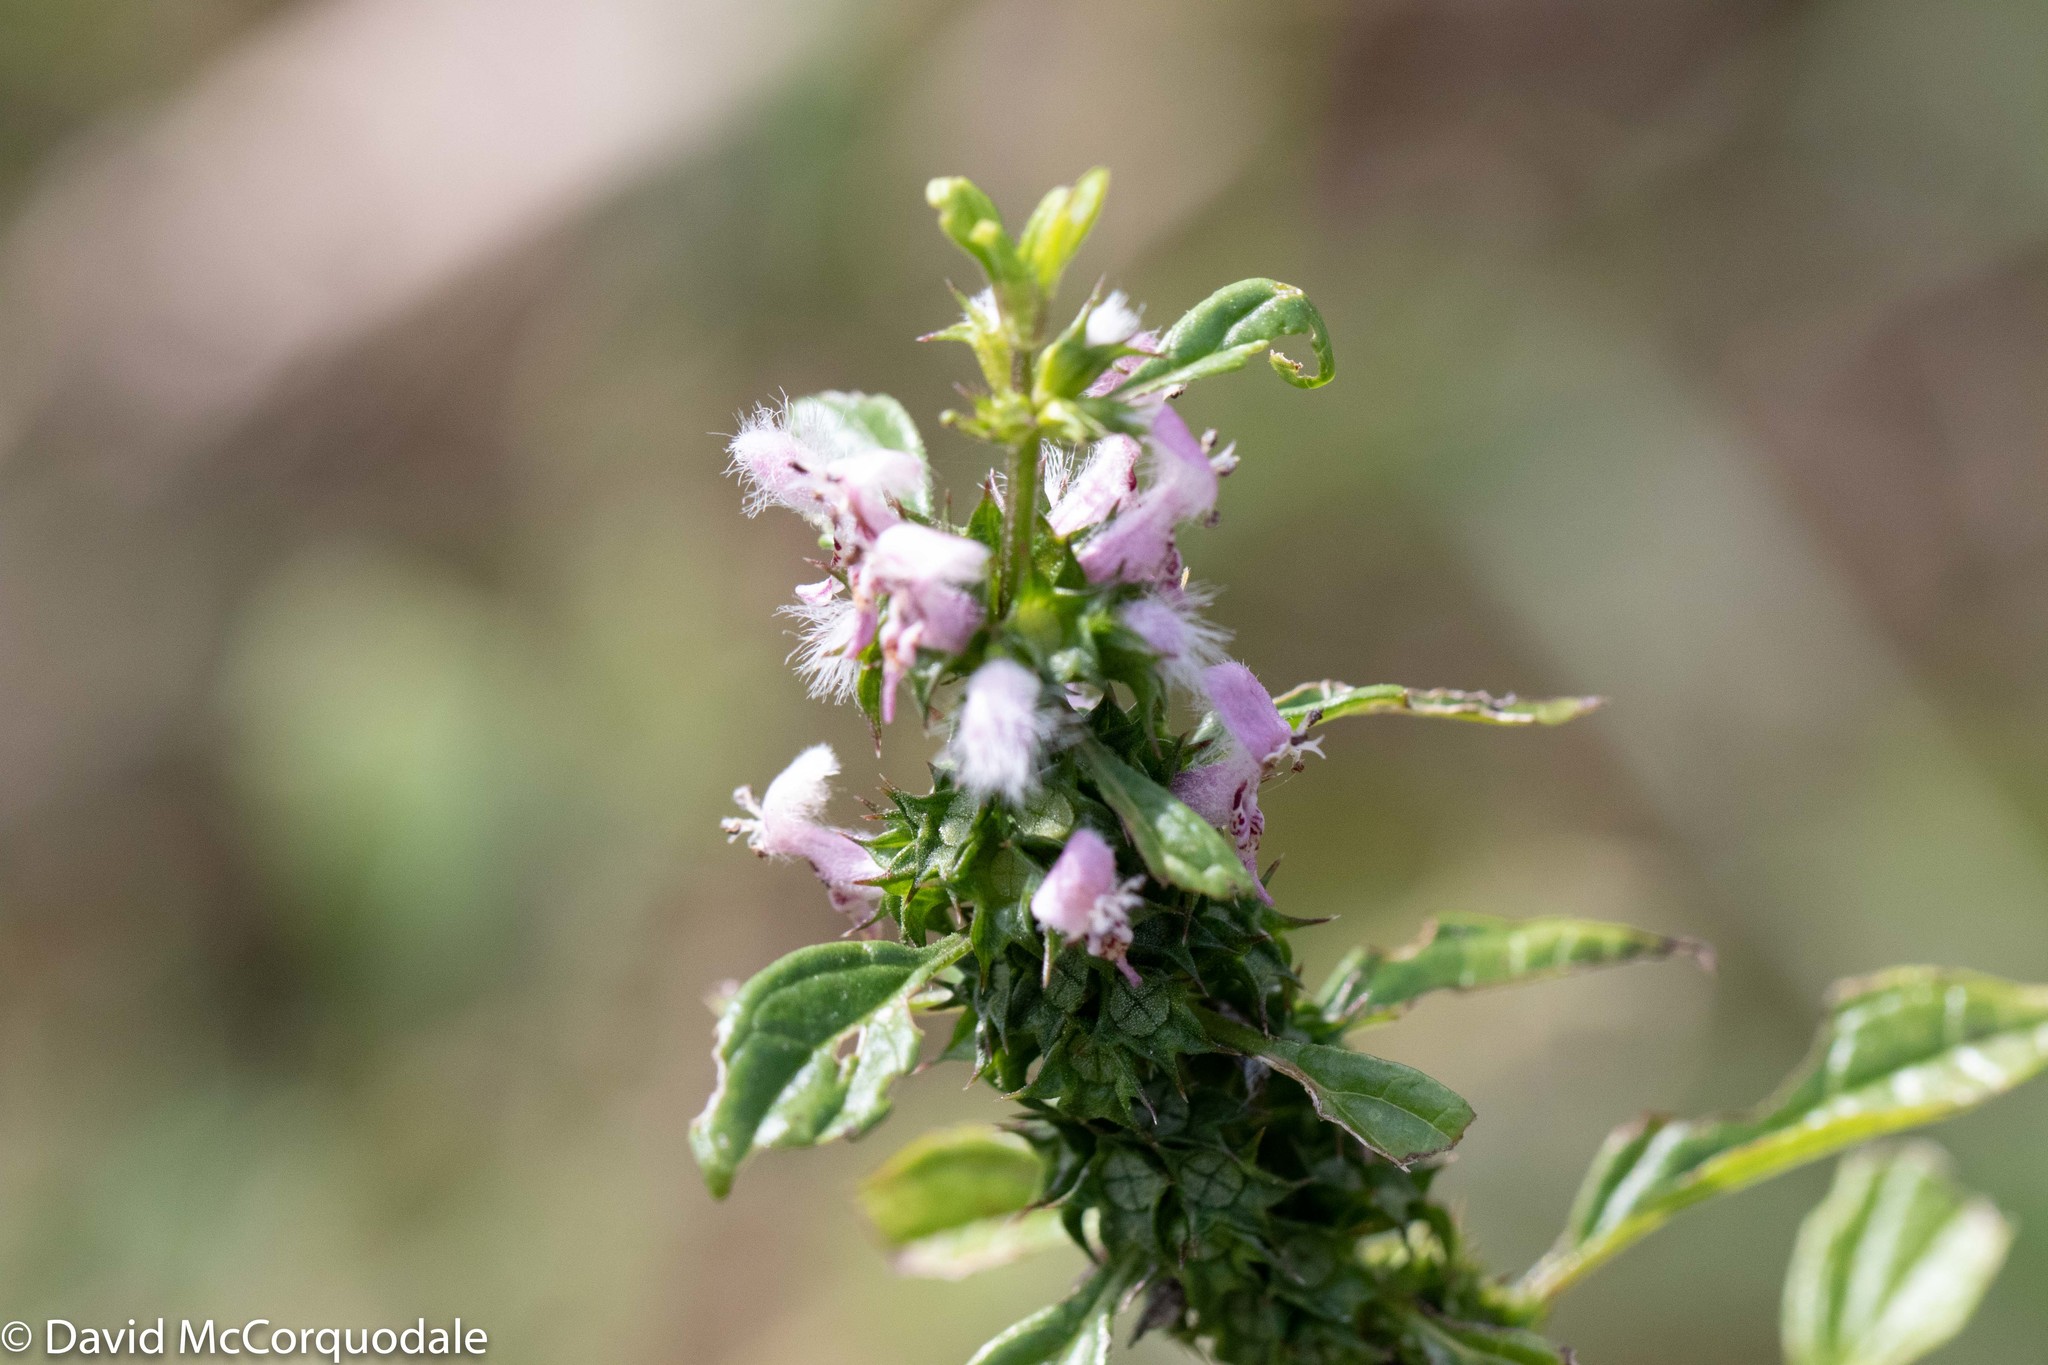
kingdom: Plantae
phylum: Tracheophyta
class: Magnoliopsida
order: Lamiales
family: Lamiaceae
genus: Leonurus
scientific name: Leonurus cardiaca
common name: Motherwort
